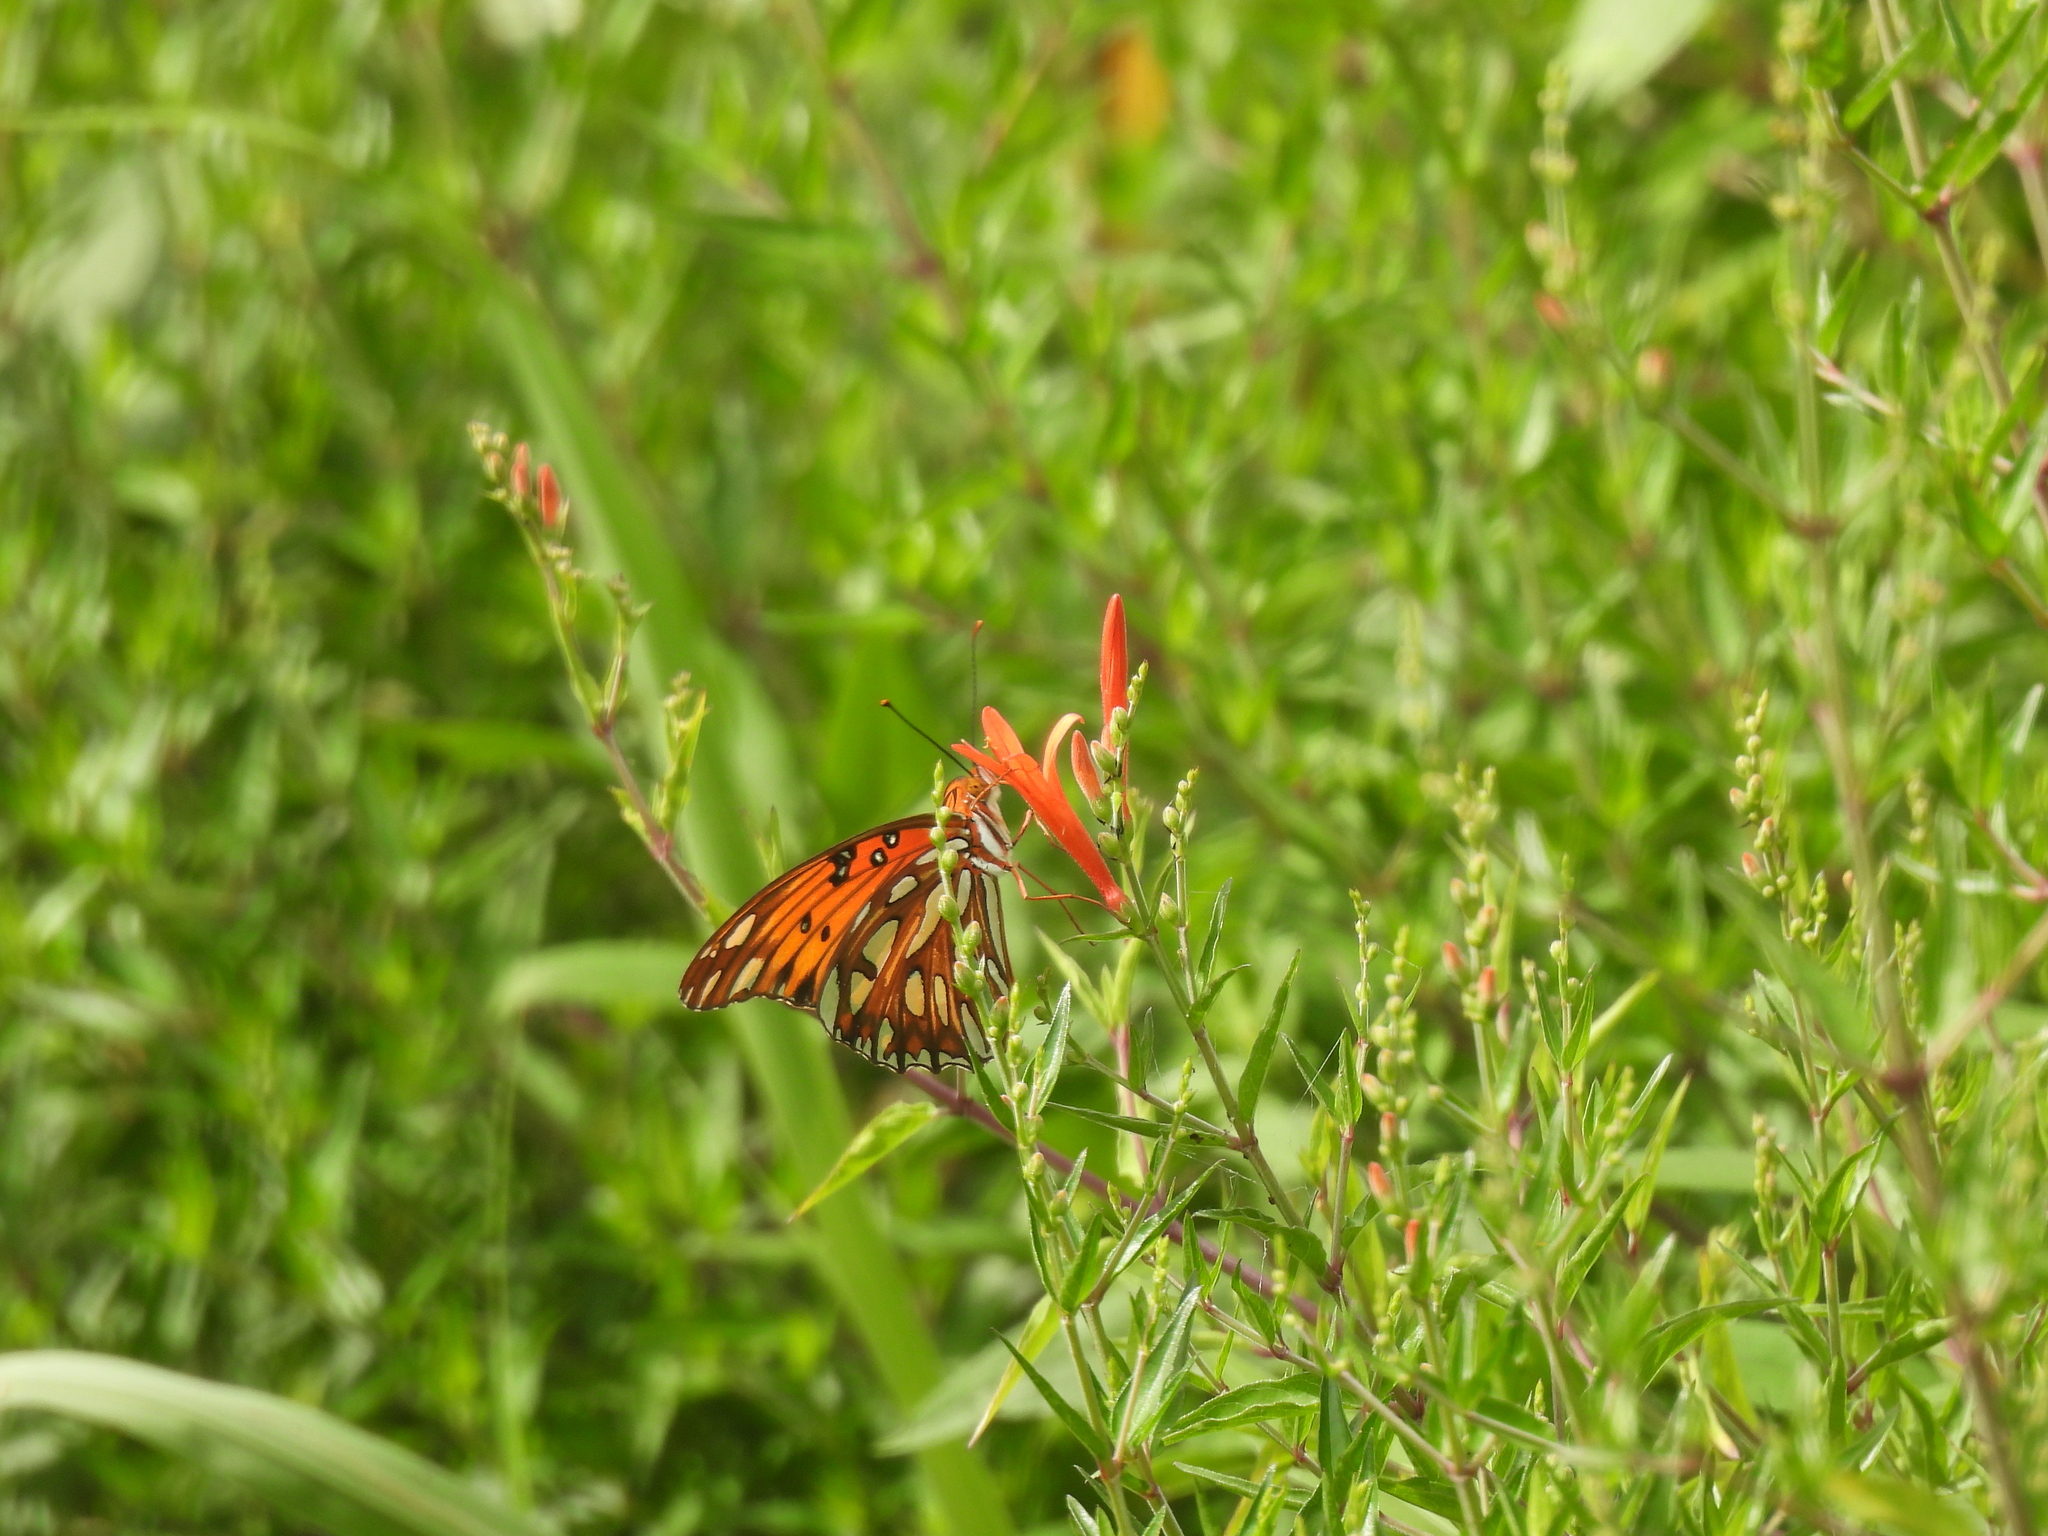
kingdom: Animalia
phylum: Arthropoda
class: Insecta
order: Lepidoptera
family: Nymphalidae
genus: Dione
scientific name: Dione vanillae
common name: Gulf fritillary
